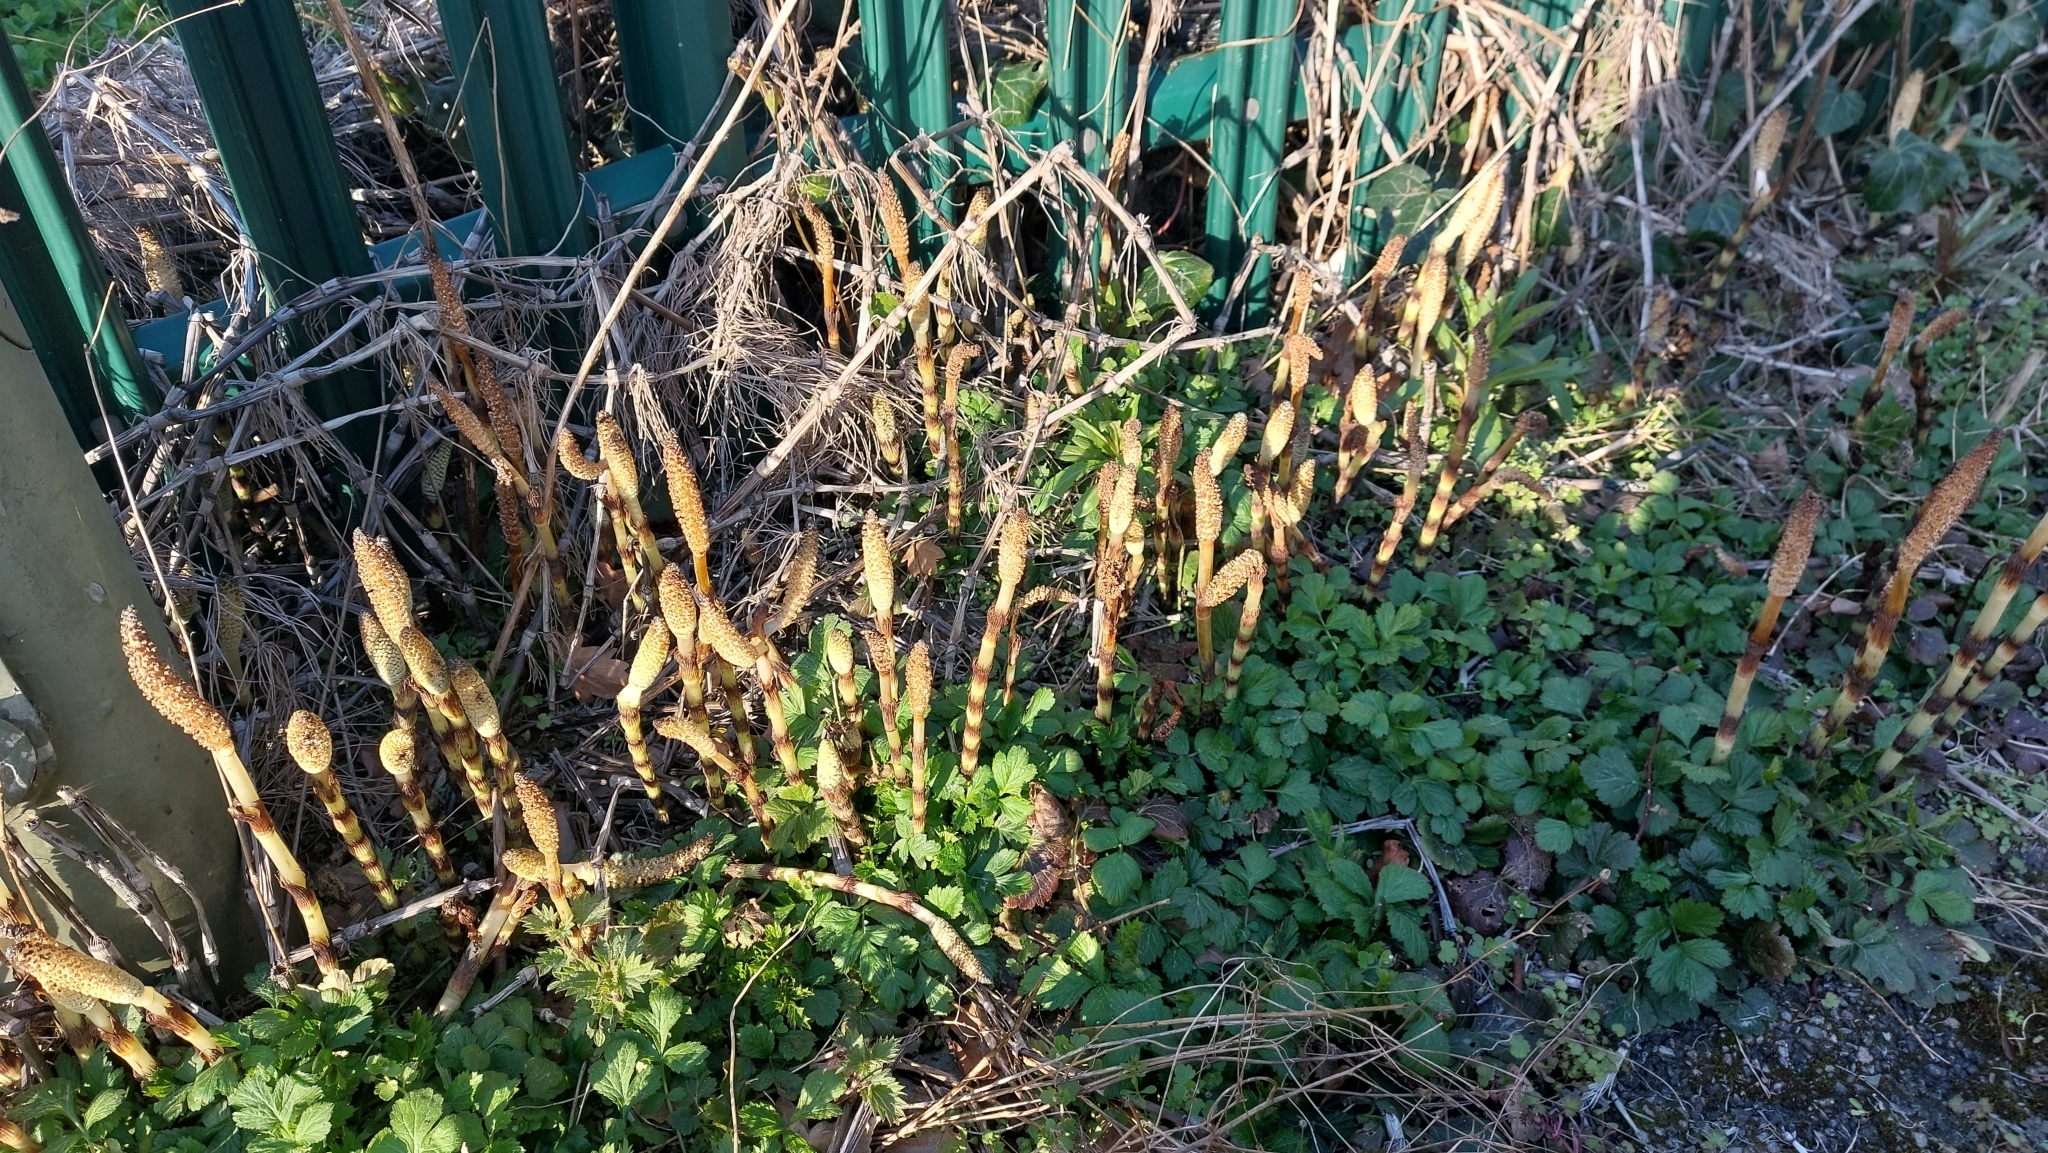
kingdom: Plantae
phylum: Tracheophyta
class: Polypodiopsida
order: Equisetales
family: Equisetaceae
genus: Equisetum
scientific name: Equisetum telmateia
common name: Great horsetail
